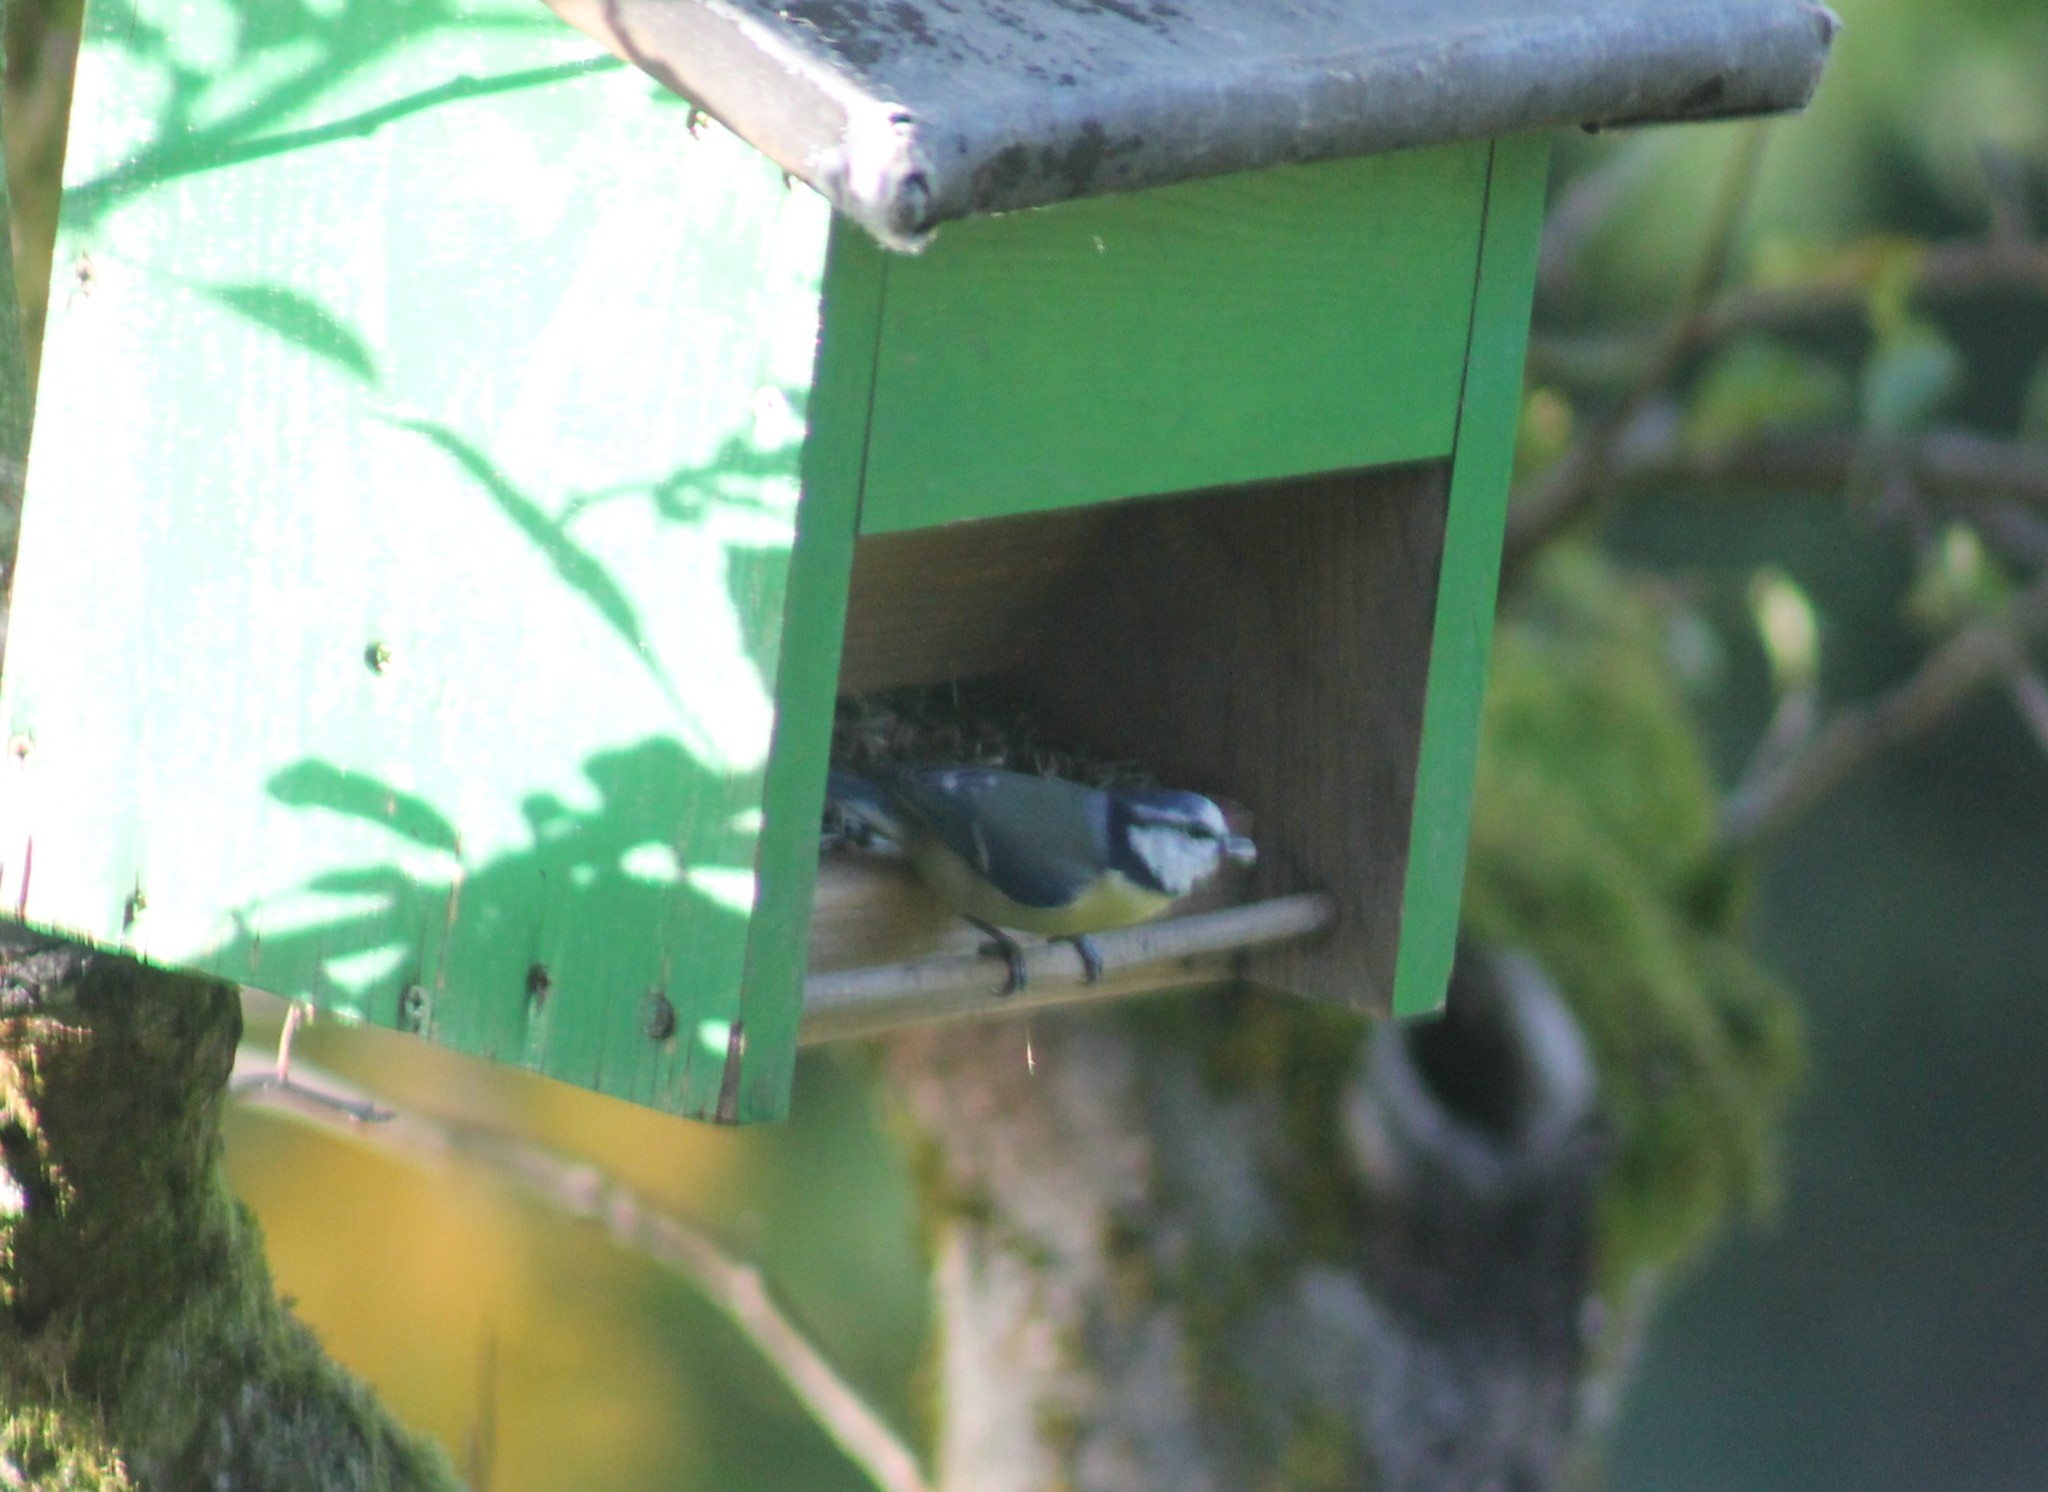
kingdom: Animalia
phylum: Chordata
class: Aves
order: Passeriformes
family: Paridae
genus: Cyanistes
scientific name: Cyanistes caeruleus
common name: Eurasian blue tit
